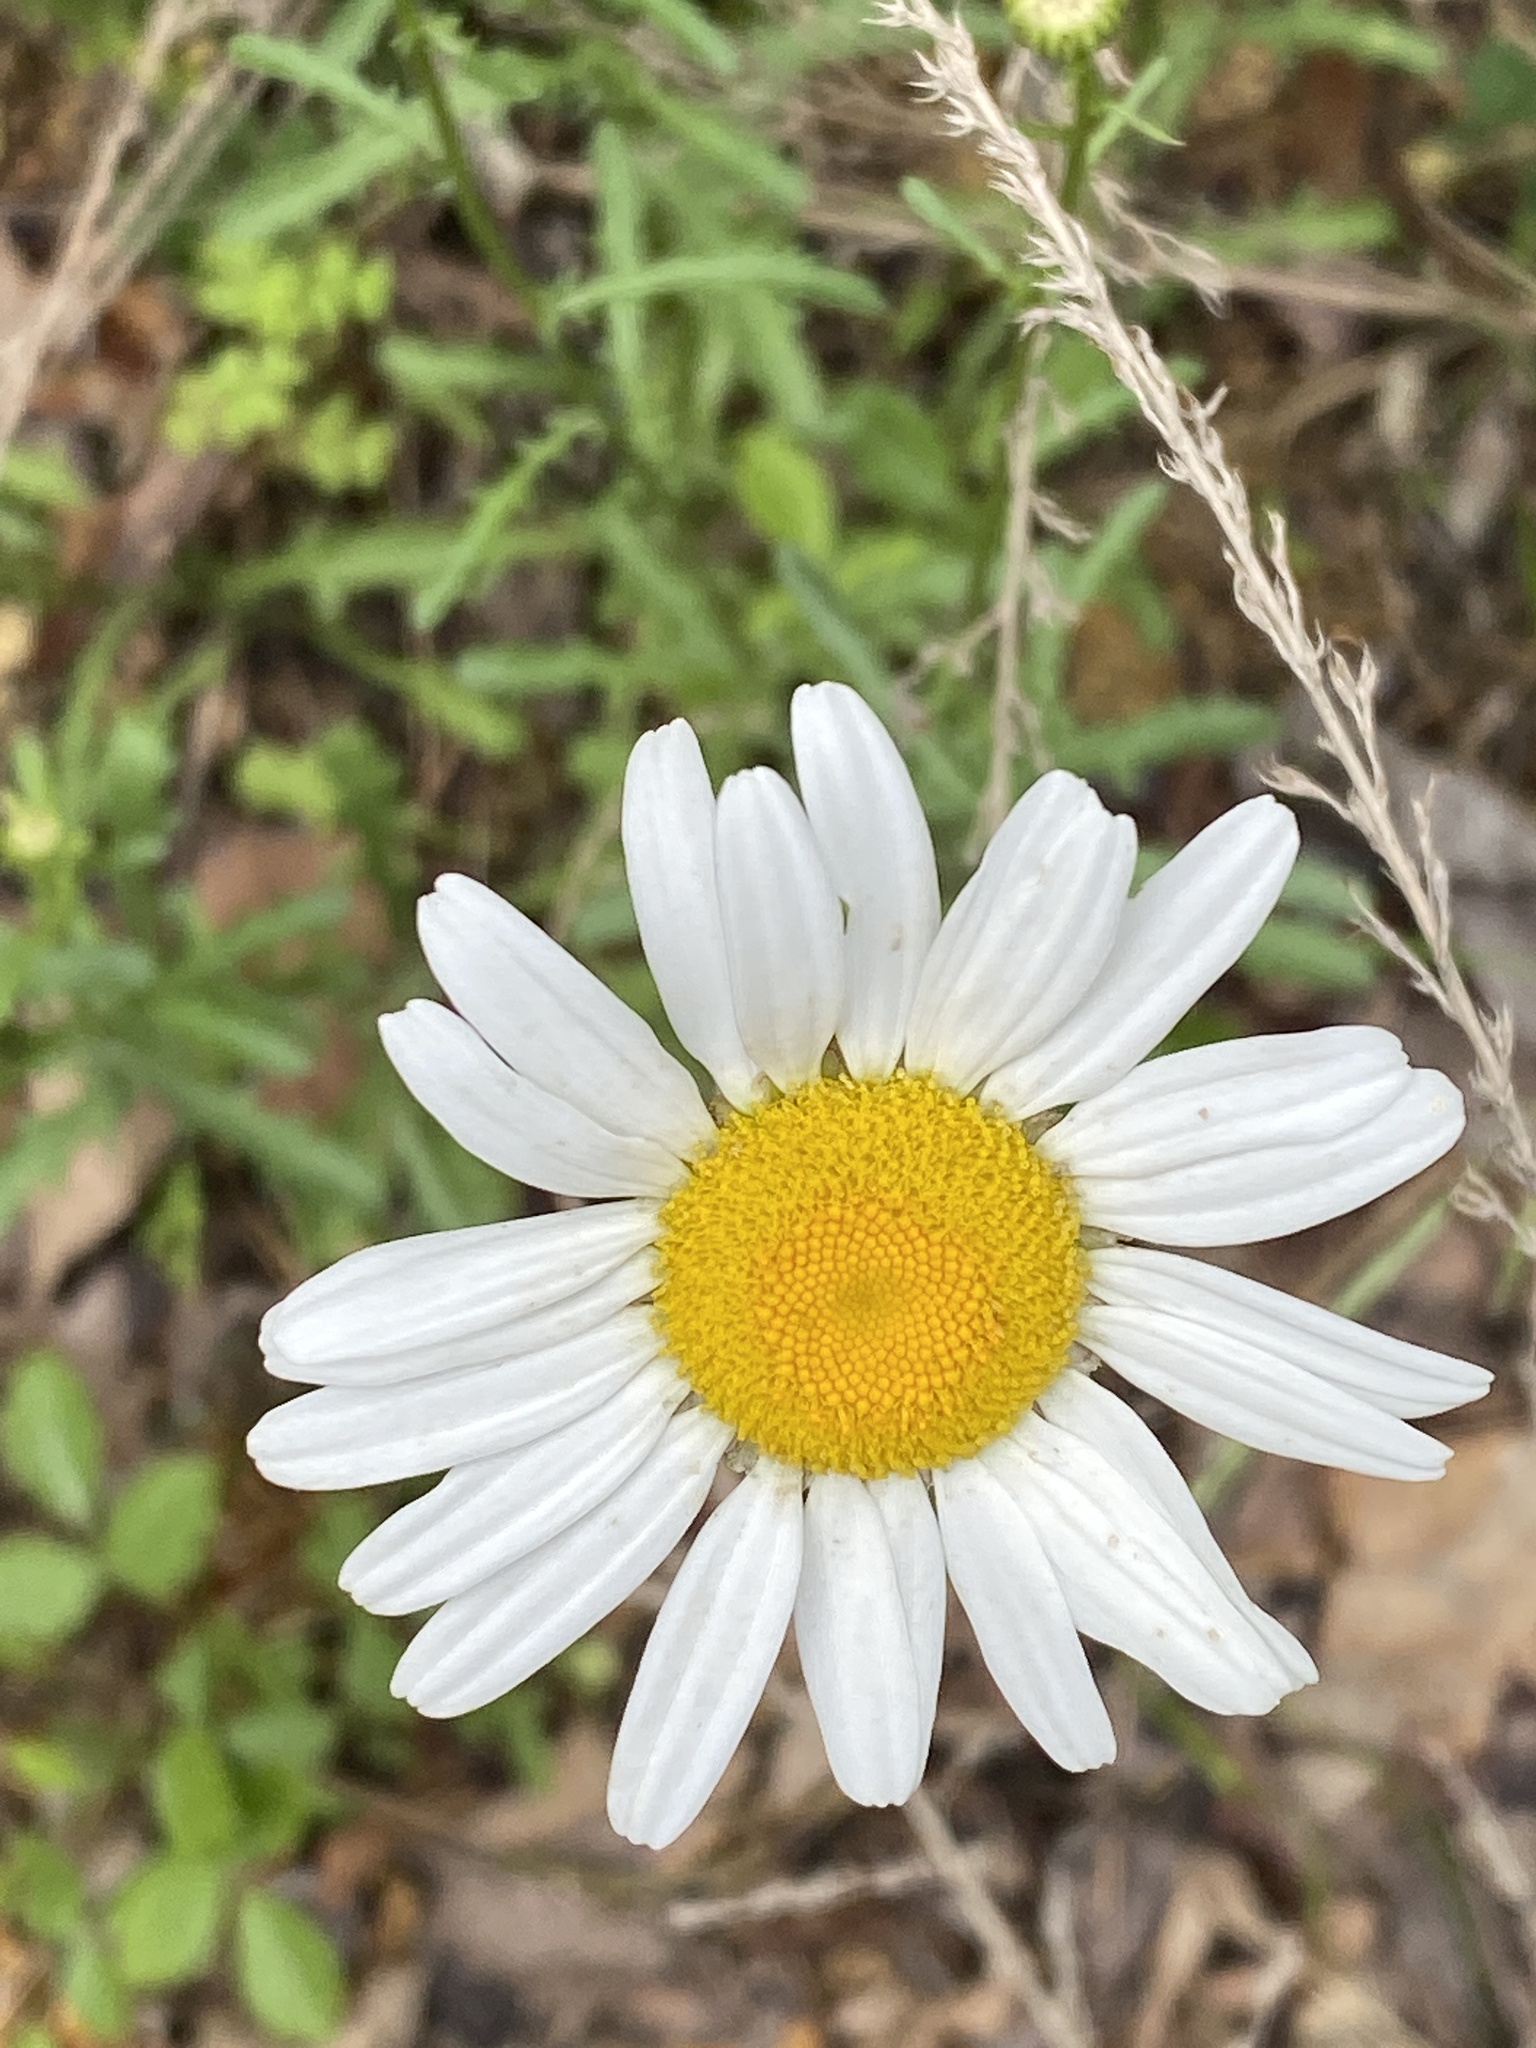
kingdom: Plantae
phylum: Tracheophyta
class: Magnoliopsida
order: Asterales
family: Asteraceae
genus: Leucanthemum
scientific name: Leucanthemum vulgare
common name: Oxeye daisy
